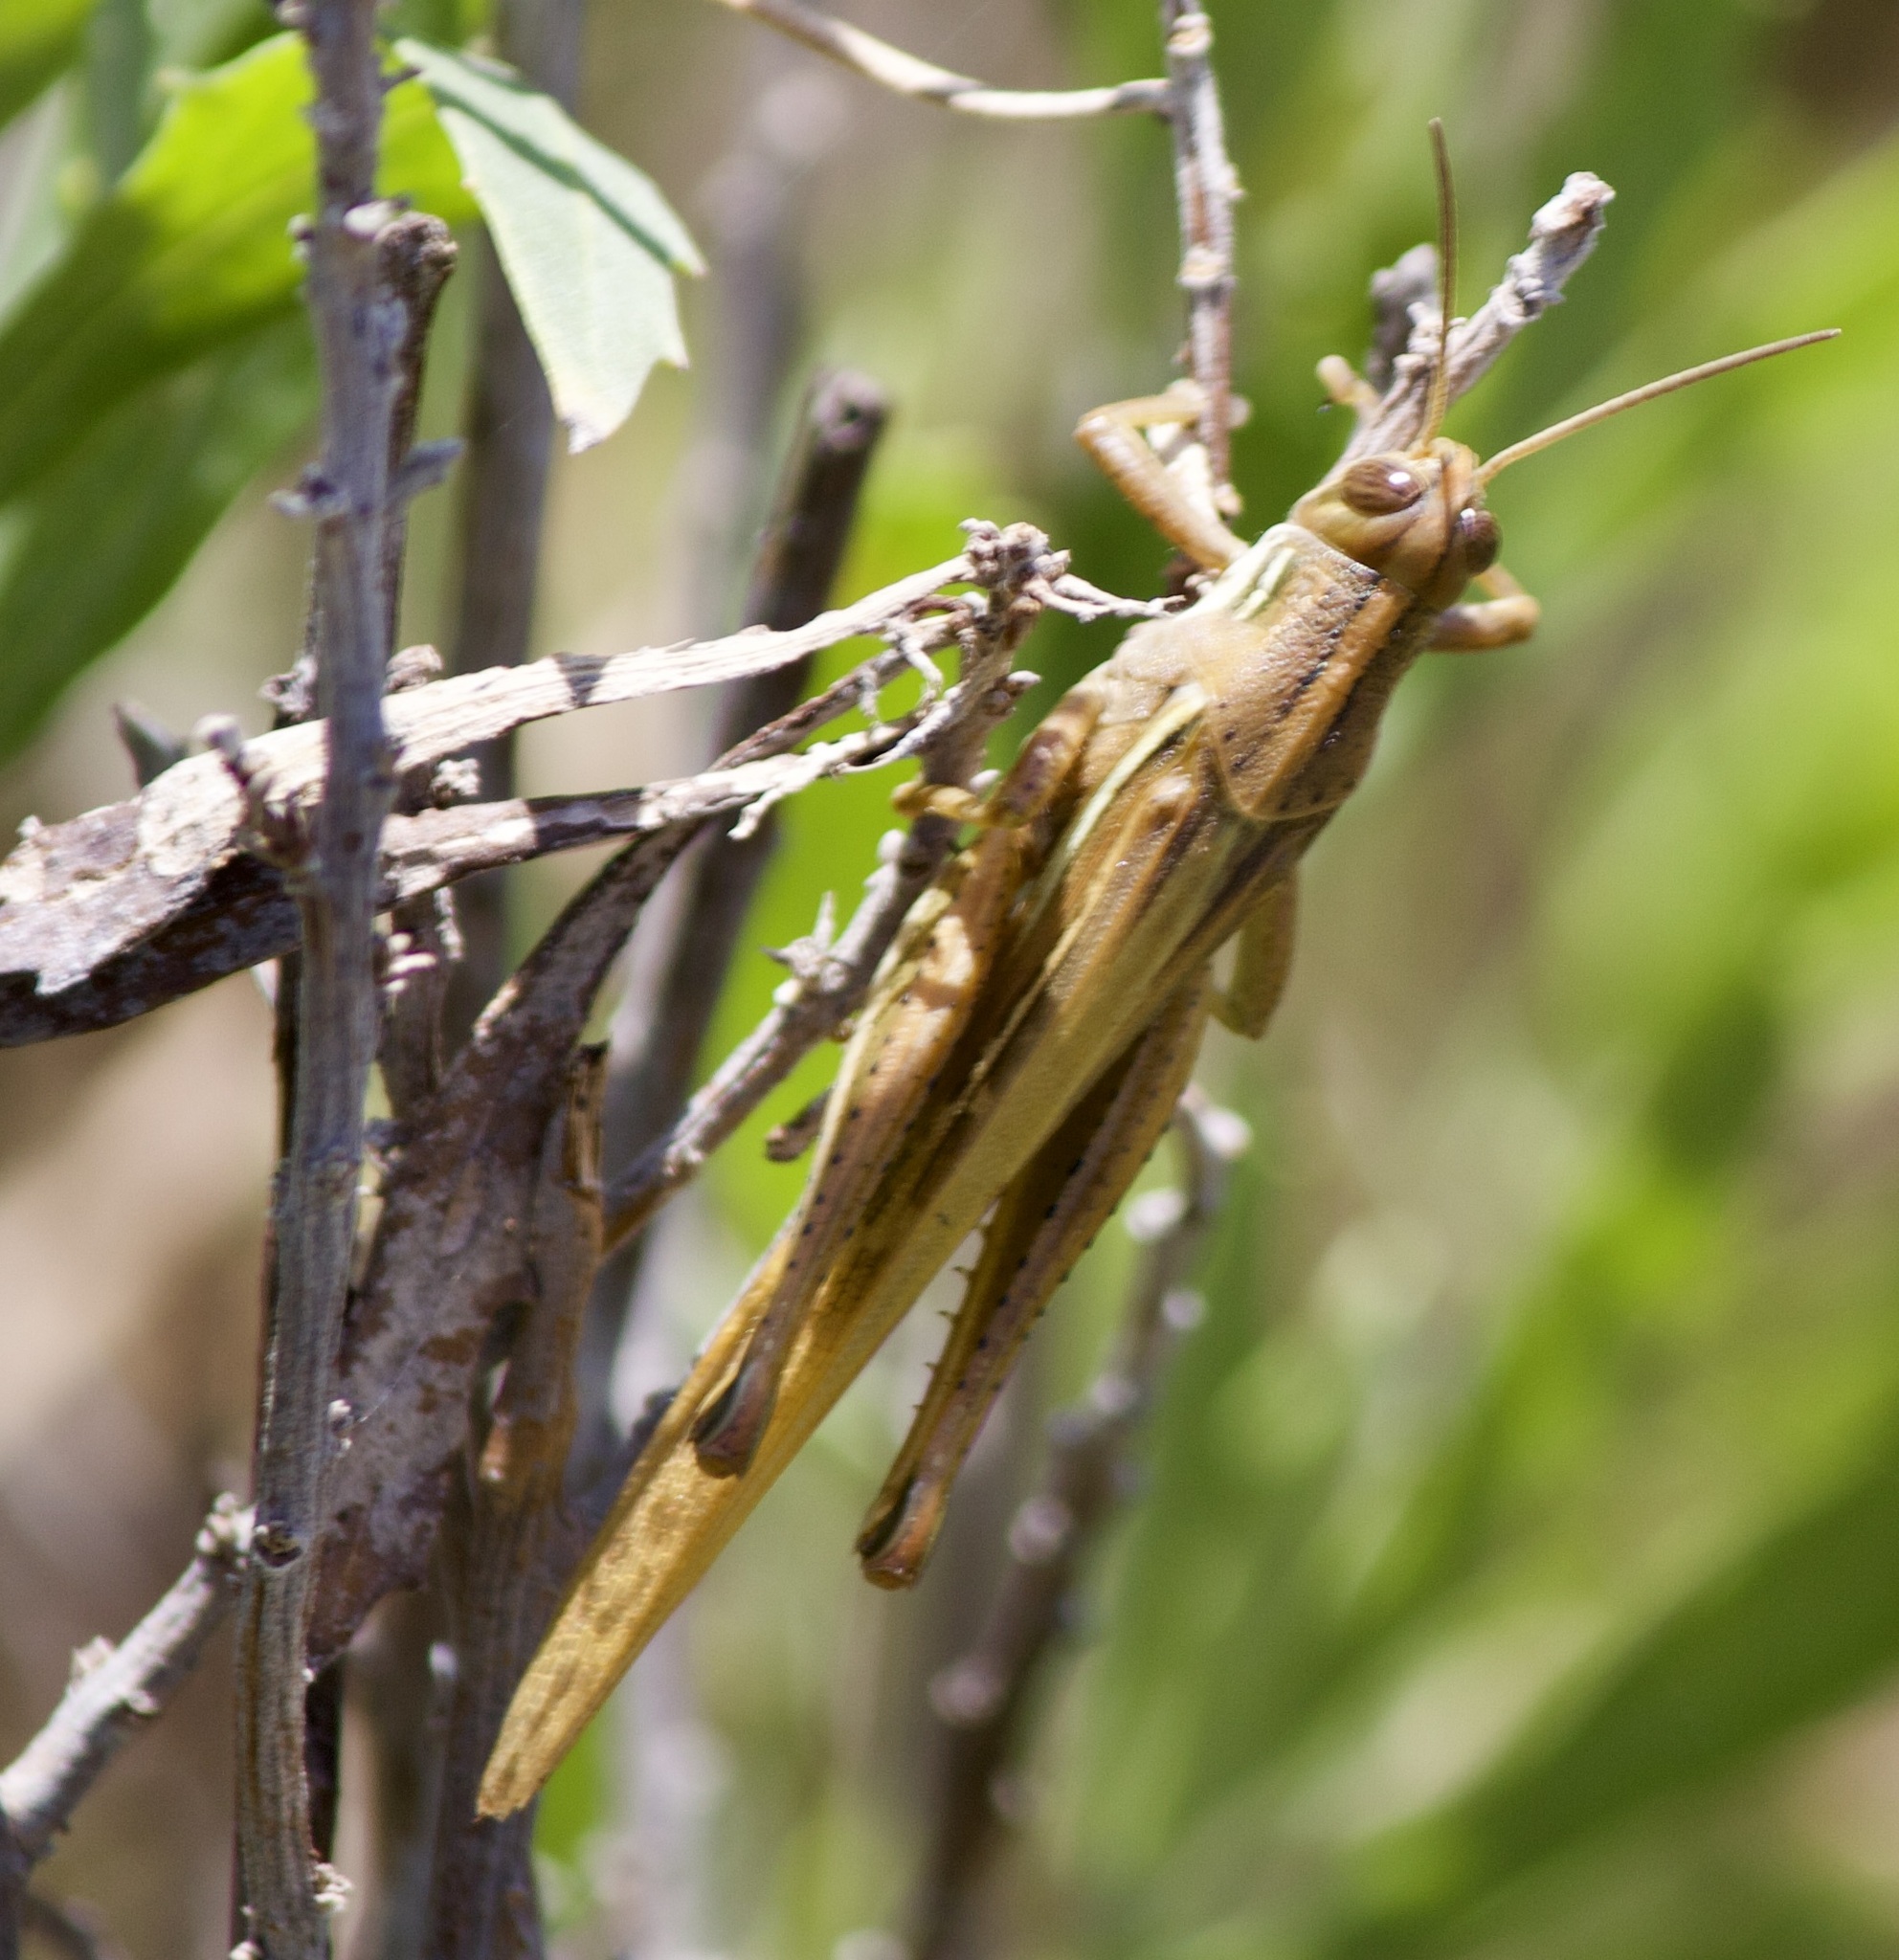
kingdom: Animalia
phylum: Arthropoda
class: Insecta
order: Orthoptera
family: Acrididae
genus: Schistocerca
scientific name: Schistocerca cancellata
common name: South american locust
